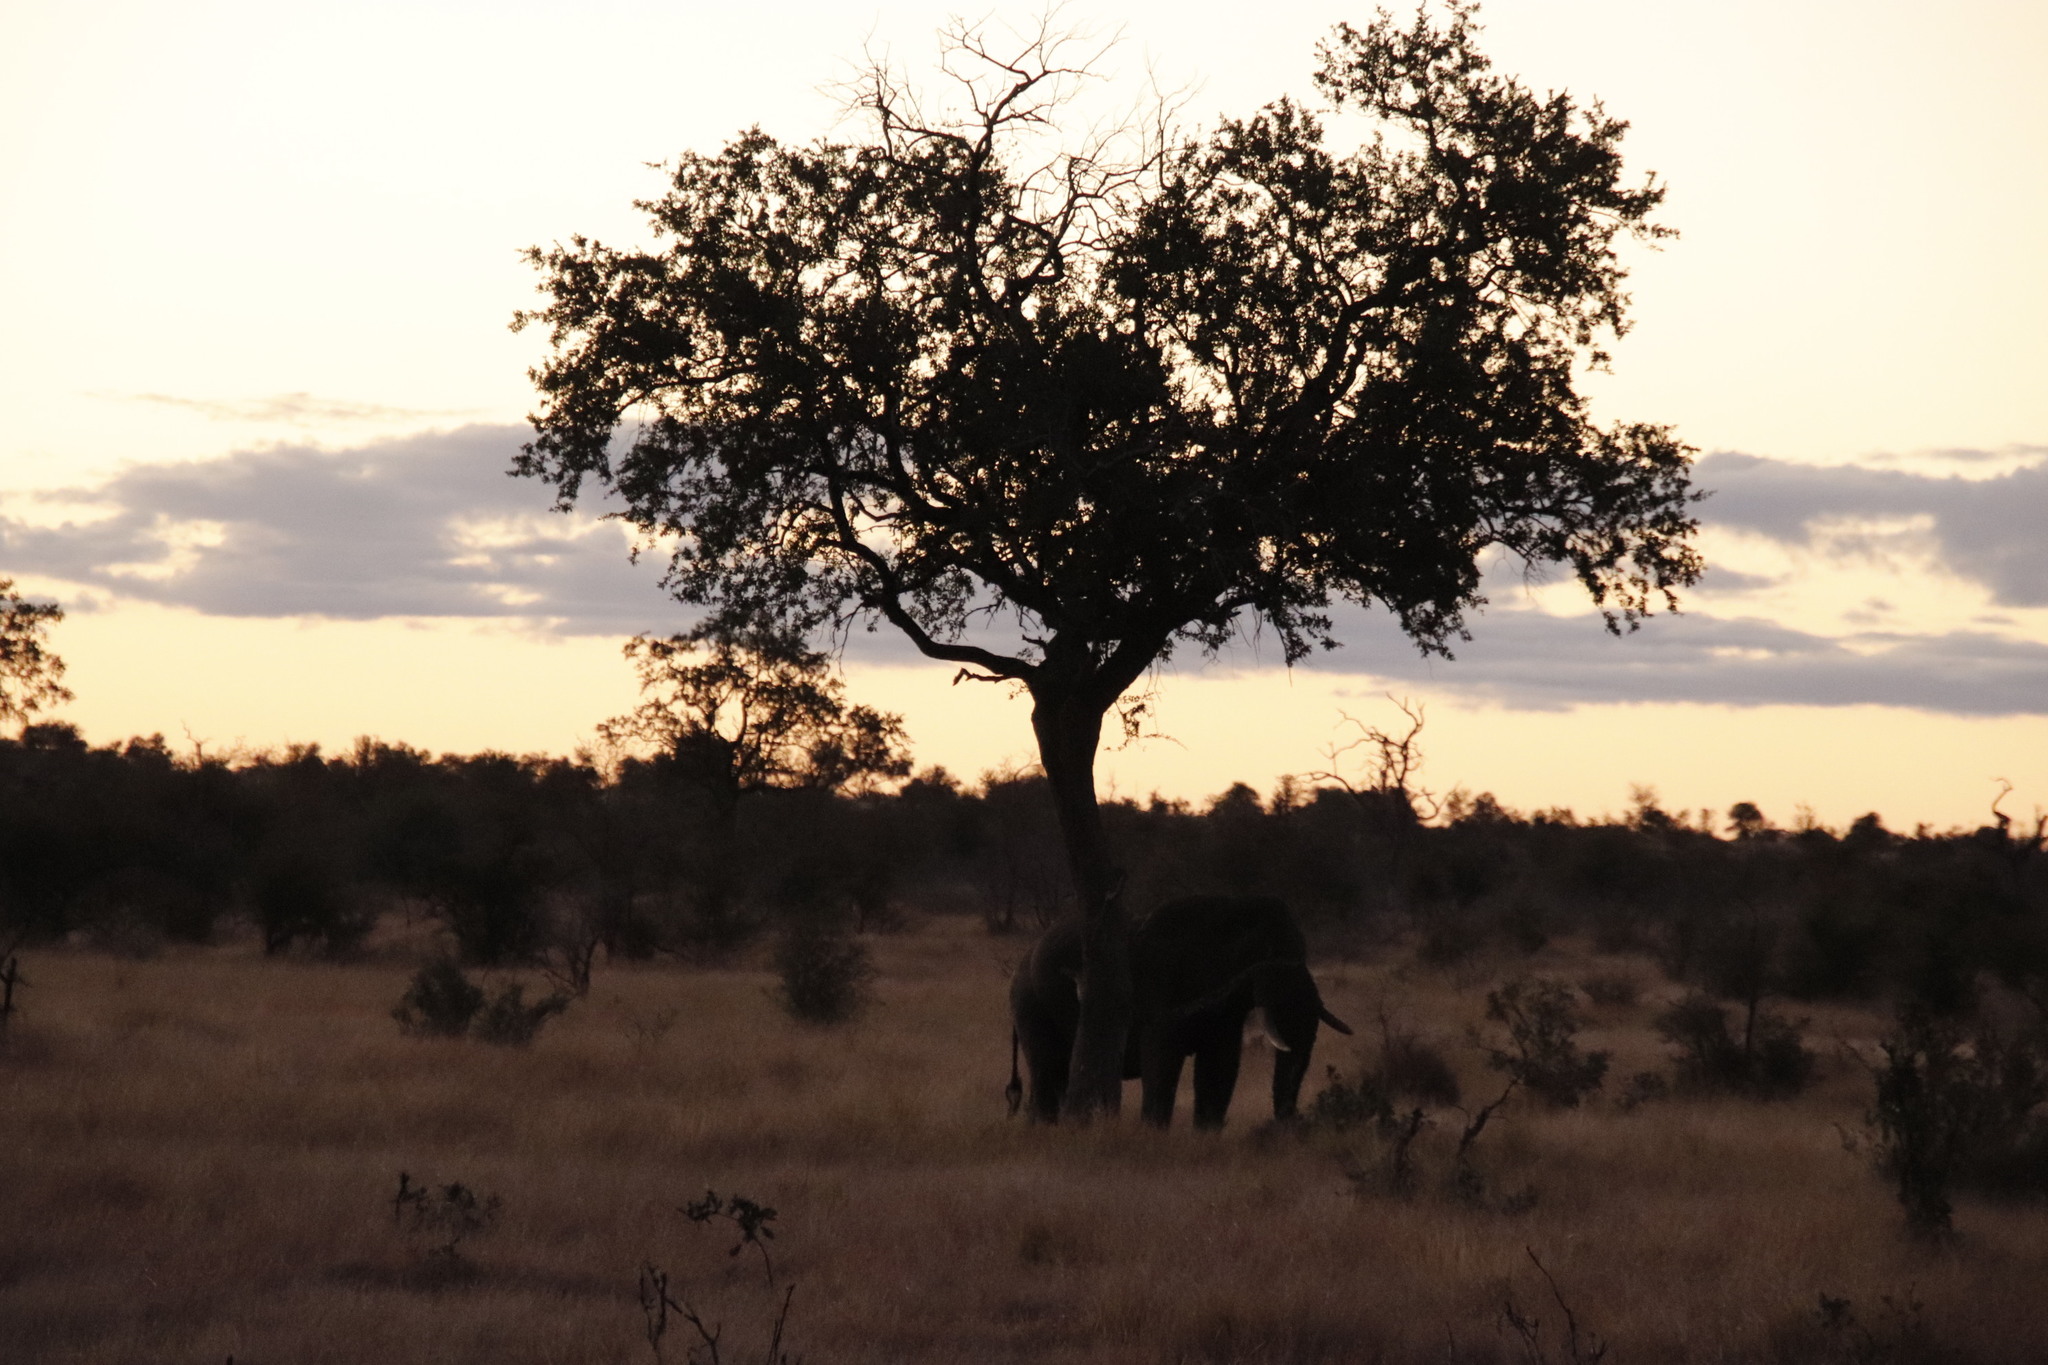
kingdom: Animalia
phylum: Chordata
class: Mammalia
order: Proboscidea
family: Elephantidae
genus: Loxodonta
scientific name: Loxodonta africana
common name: African elephant
